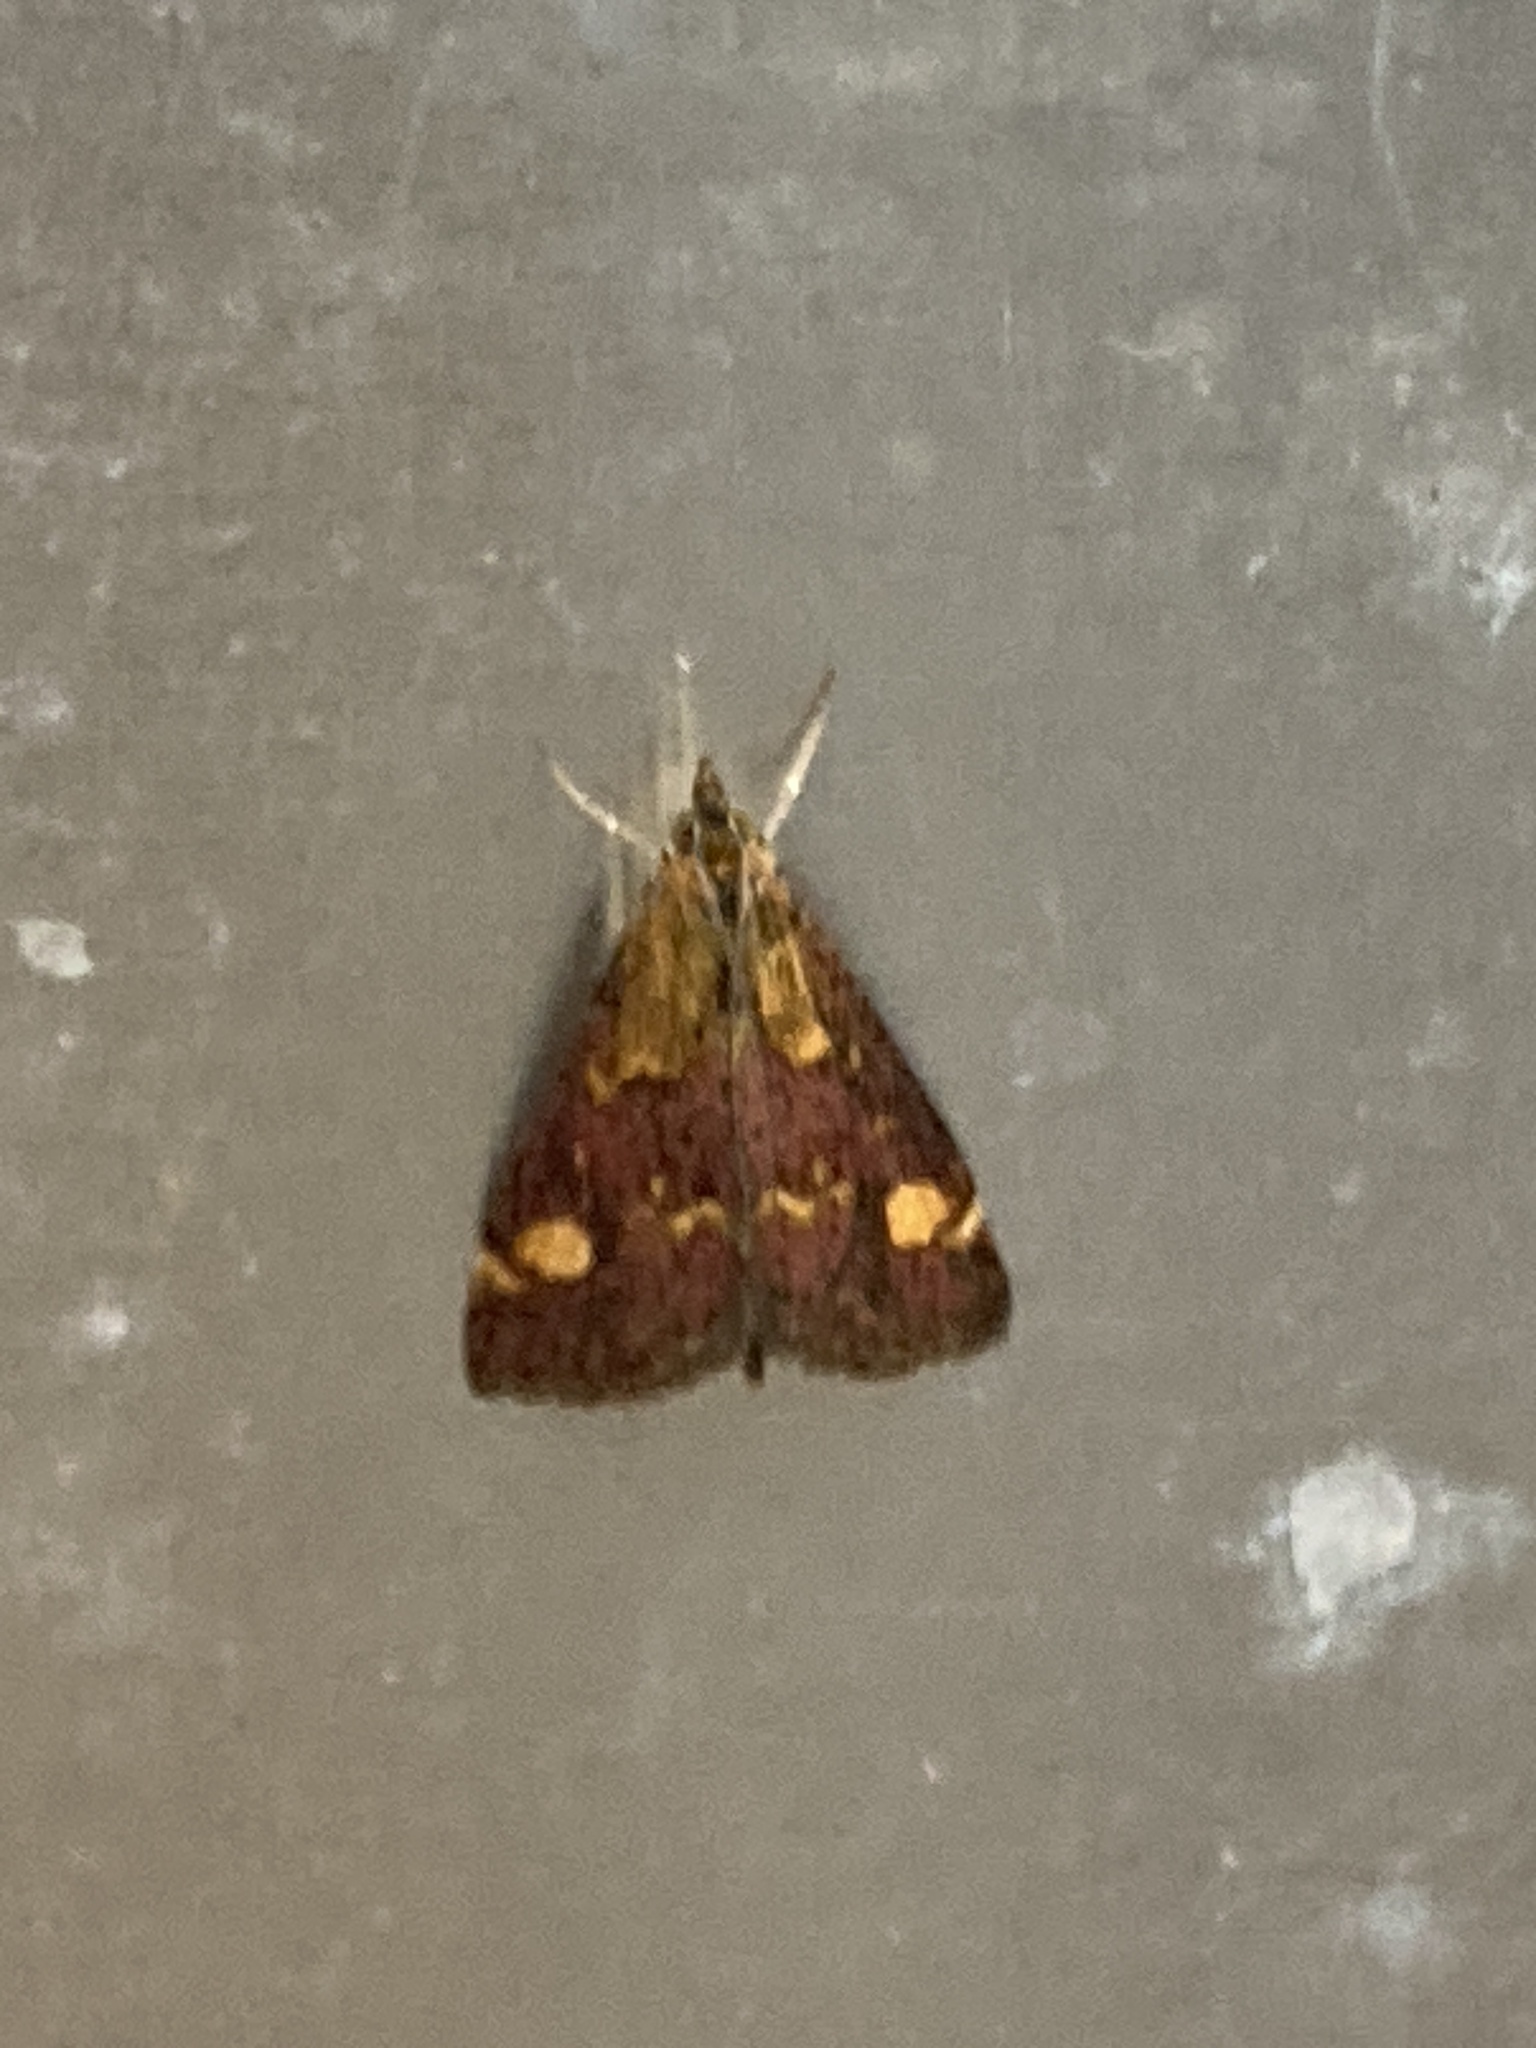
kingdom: Animalia
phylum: Arthropoda
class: Insecta
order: Lepidoptera
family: Crambidae
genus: Pyrausta
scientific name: Pyrausta aurata
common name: Small purple & gold
